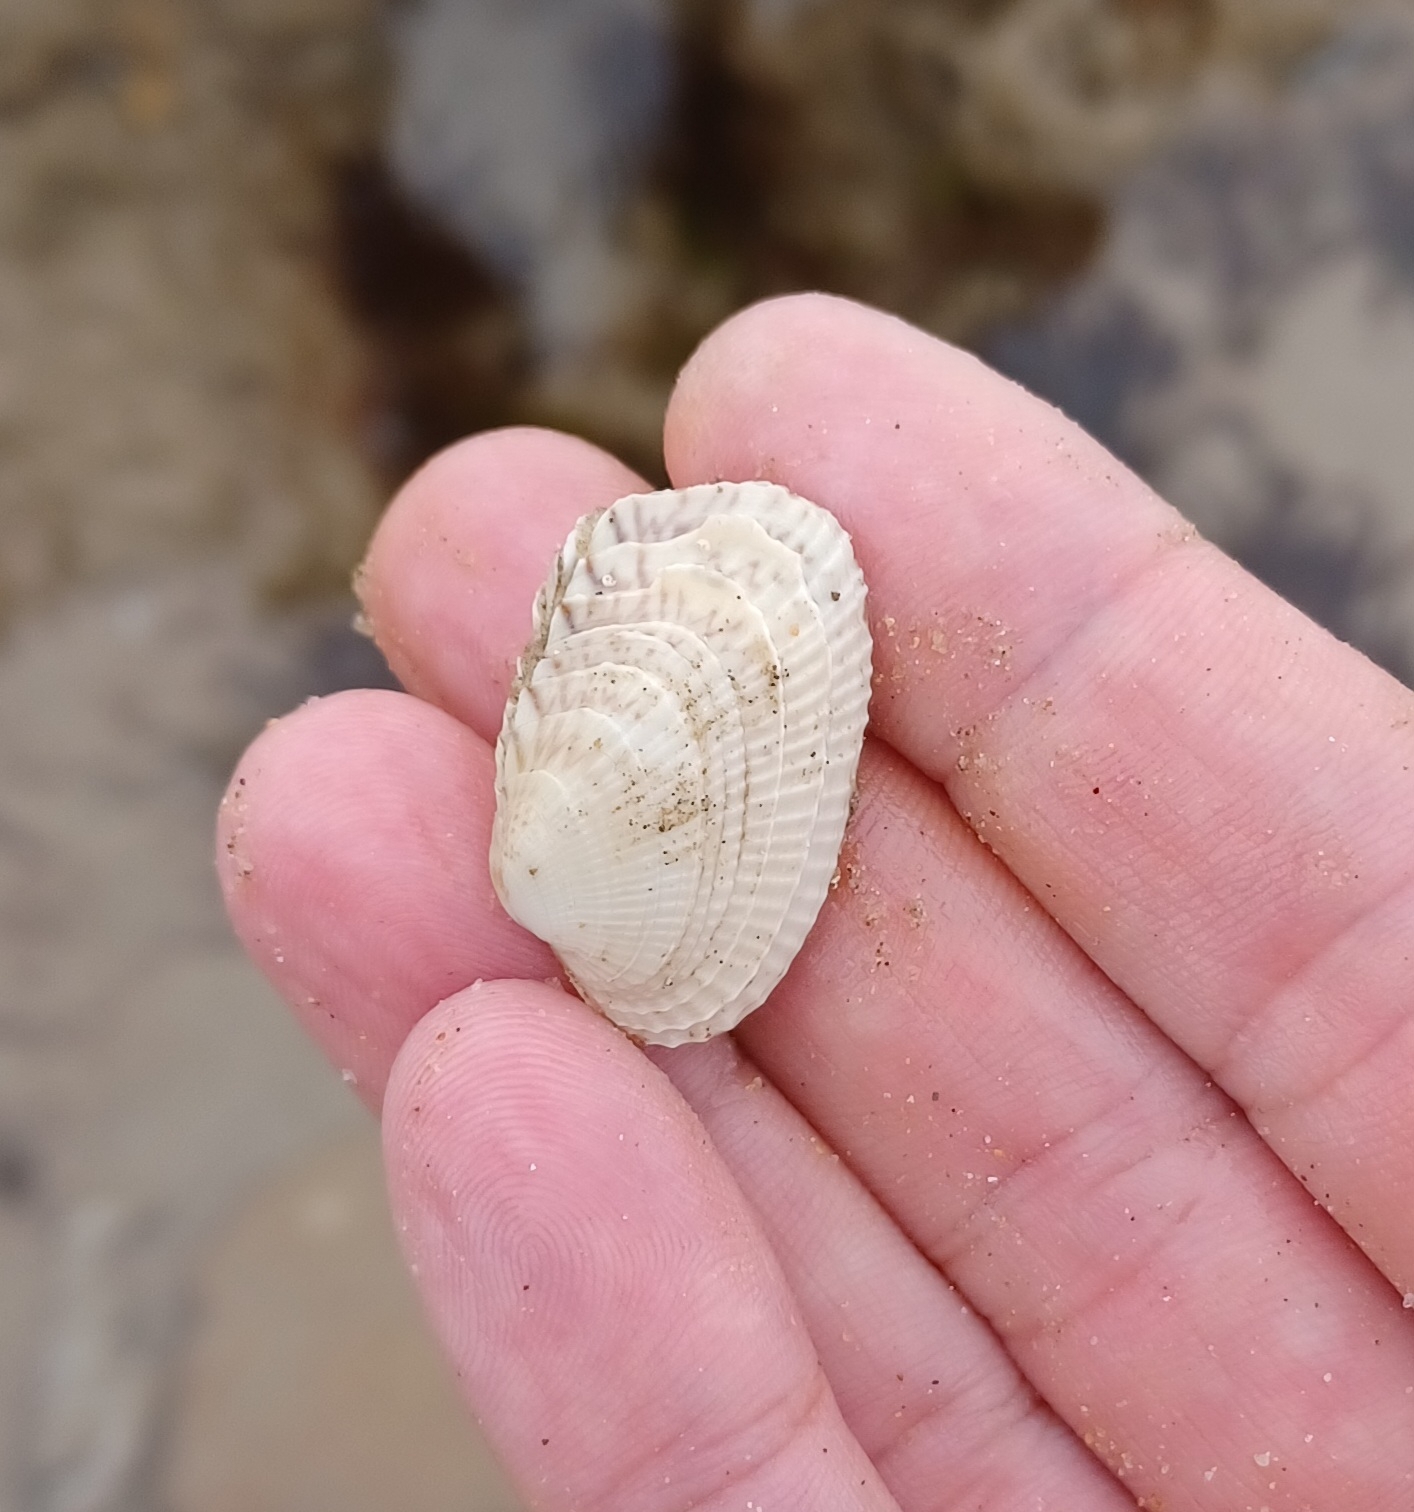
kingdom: Animalia
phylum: Mollusca
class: Bivalvia
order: Venerida
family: Veneridae
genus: Irus
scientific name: Irus carditoides
